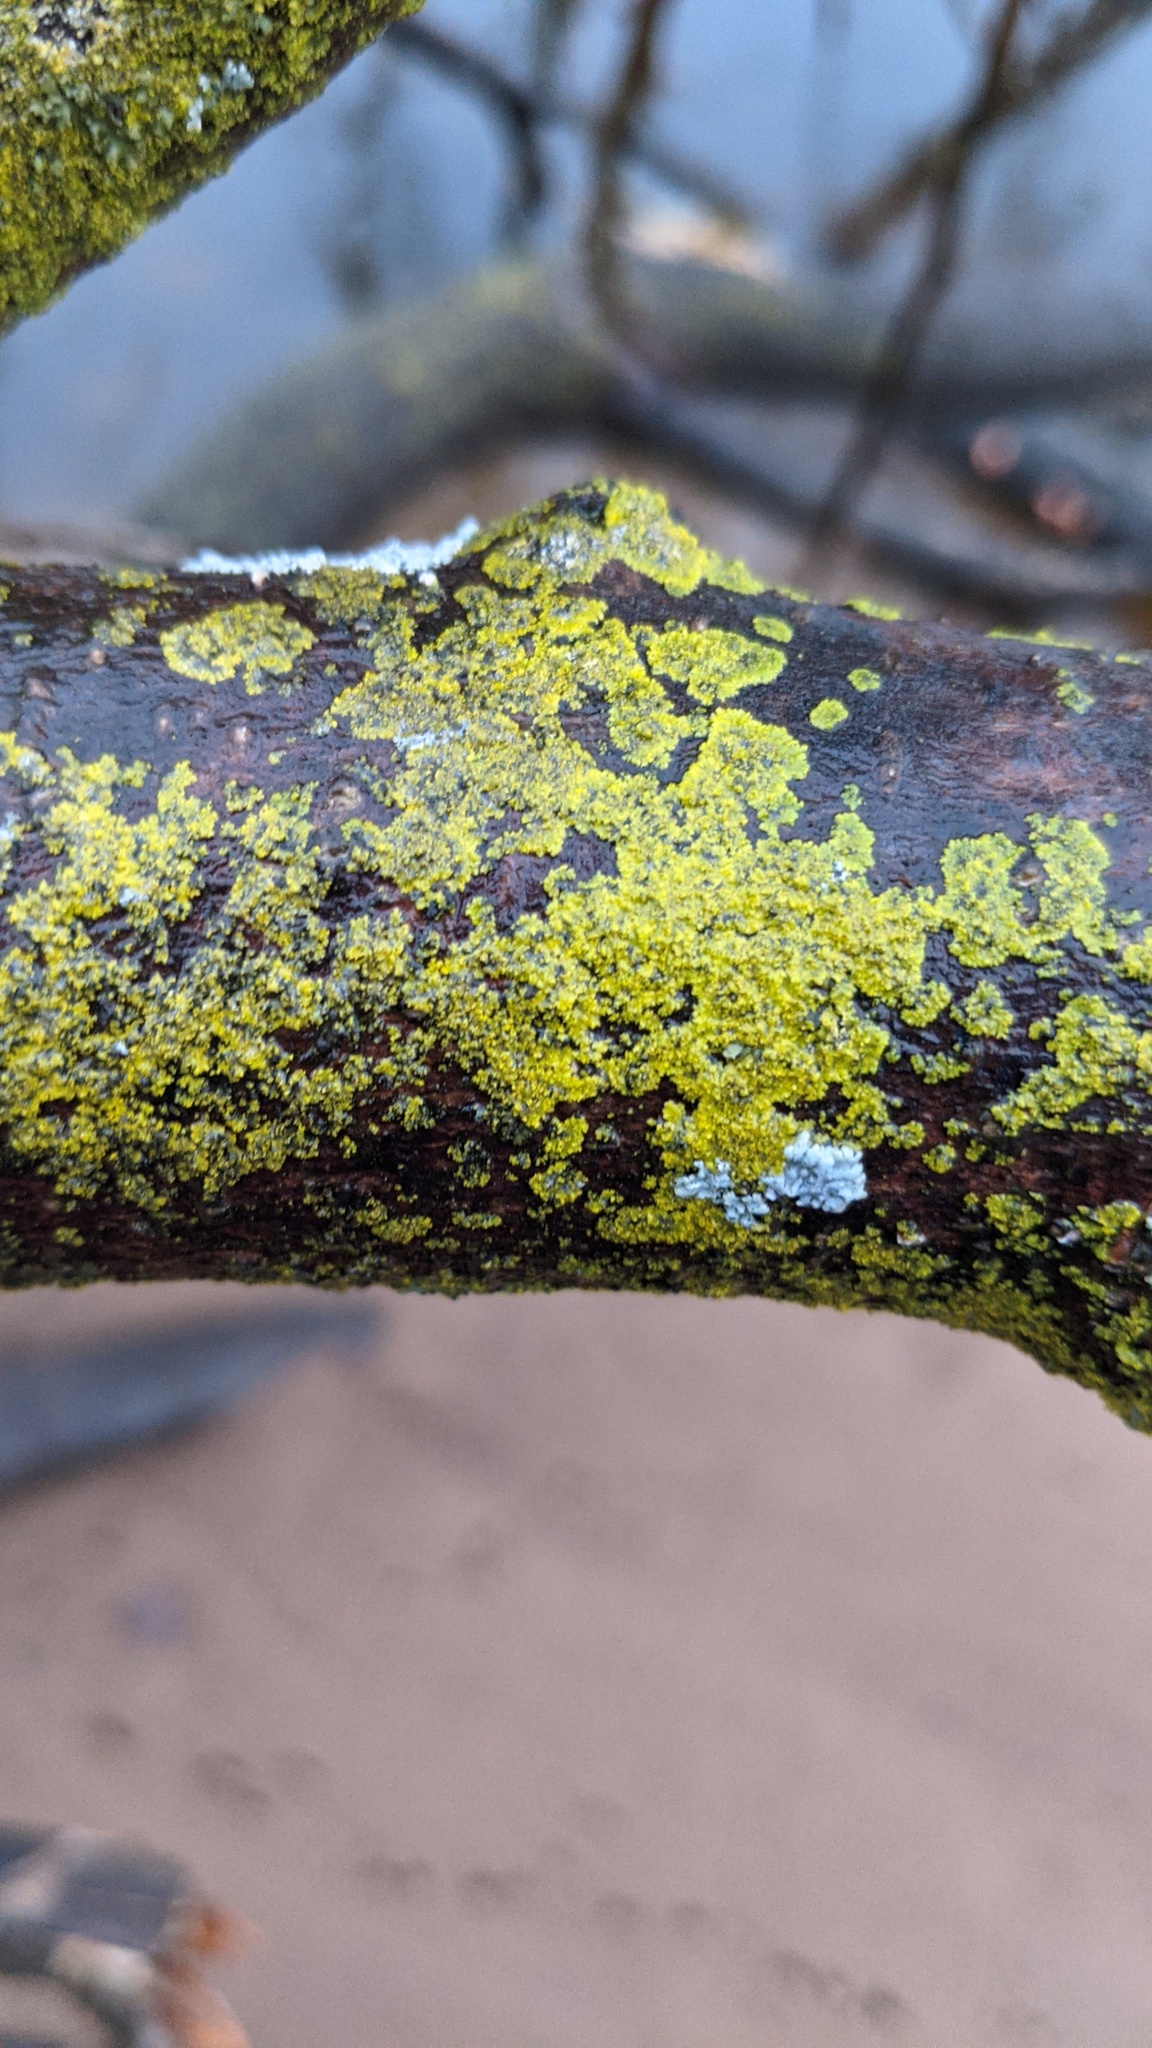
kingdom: Fungi
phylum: Ascomycota
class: Candelariomycetes
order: Candelariales
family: Candelariaceae
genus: Candelaria
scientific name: Candelaria concolor
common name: Candleflame lichen
